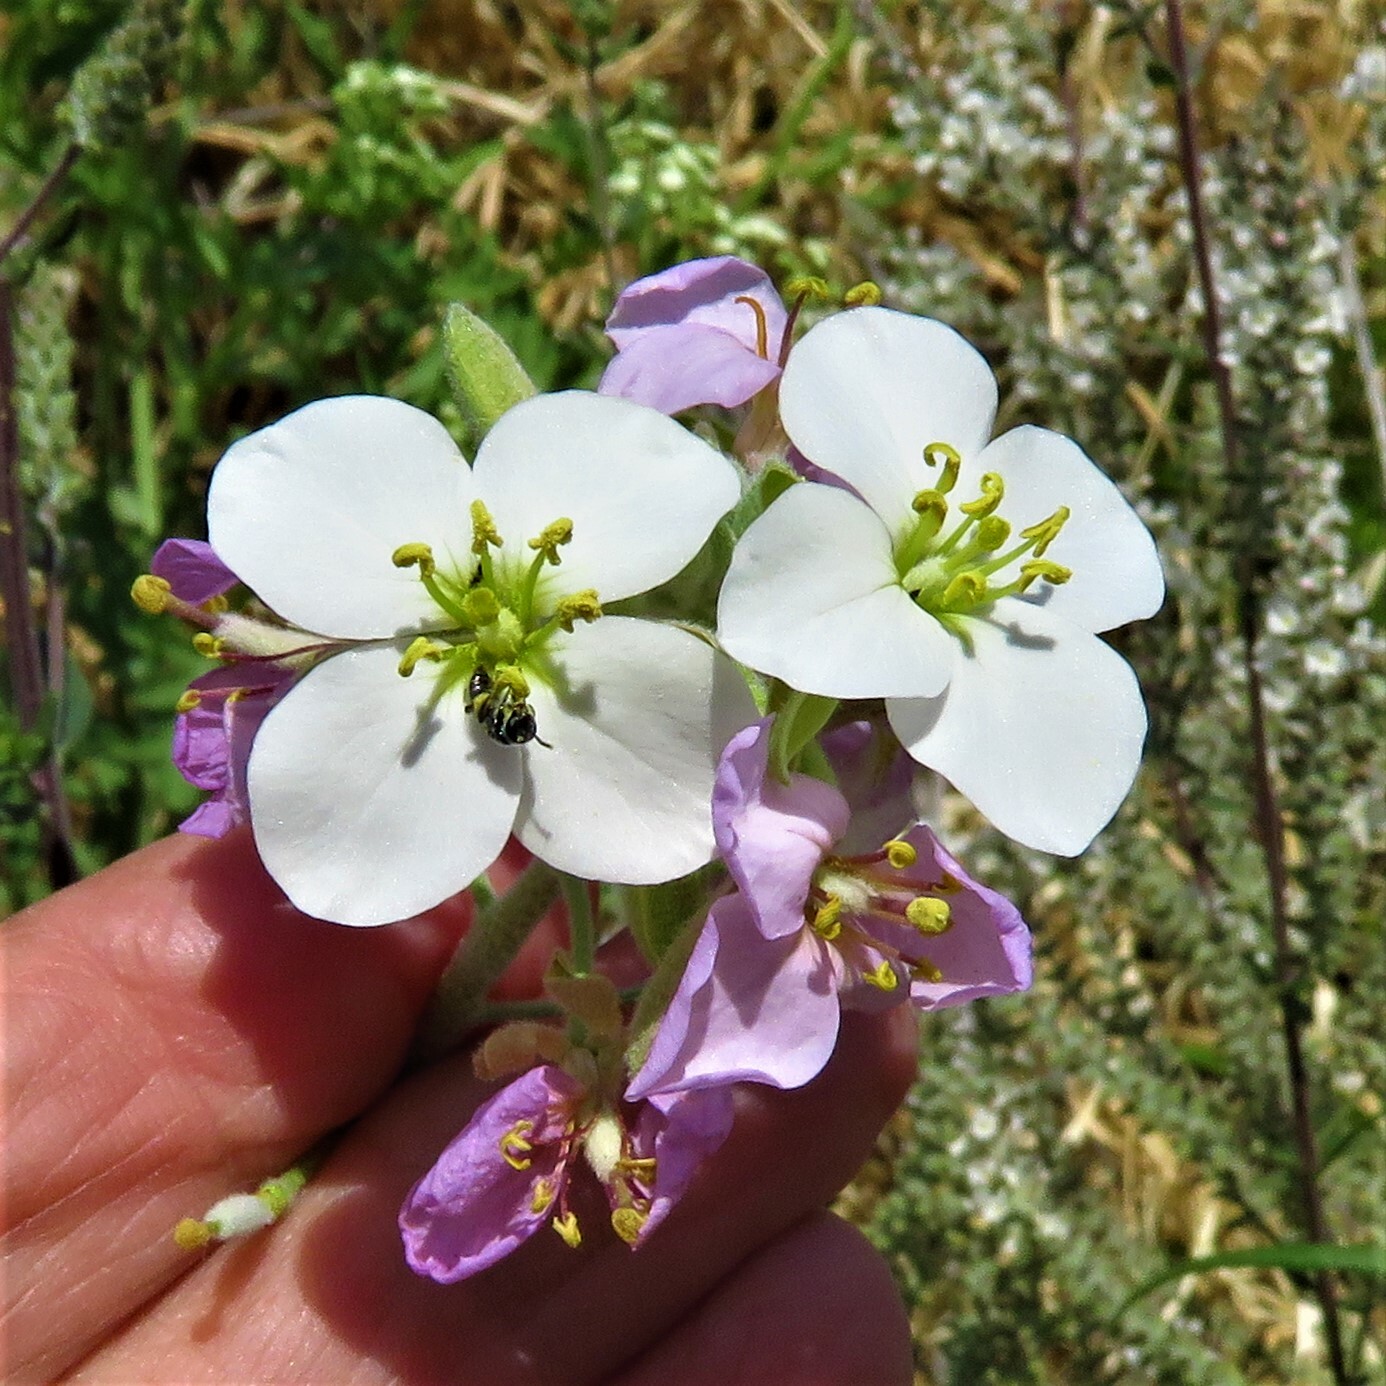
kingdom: Plantae
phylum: Tracheophyta
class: Magnoliopsida
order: Brassicales
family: Brassicaceae
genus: Nerisyrenia
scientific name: Nerisyrenia camporum
